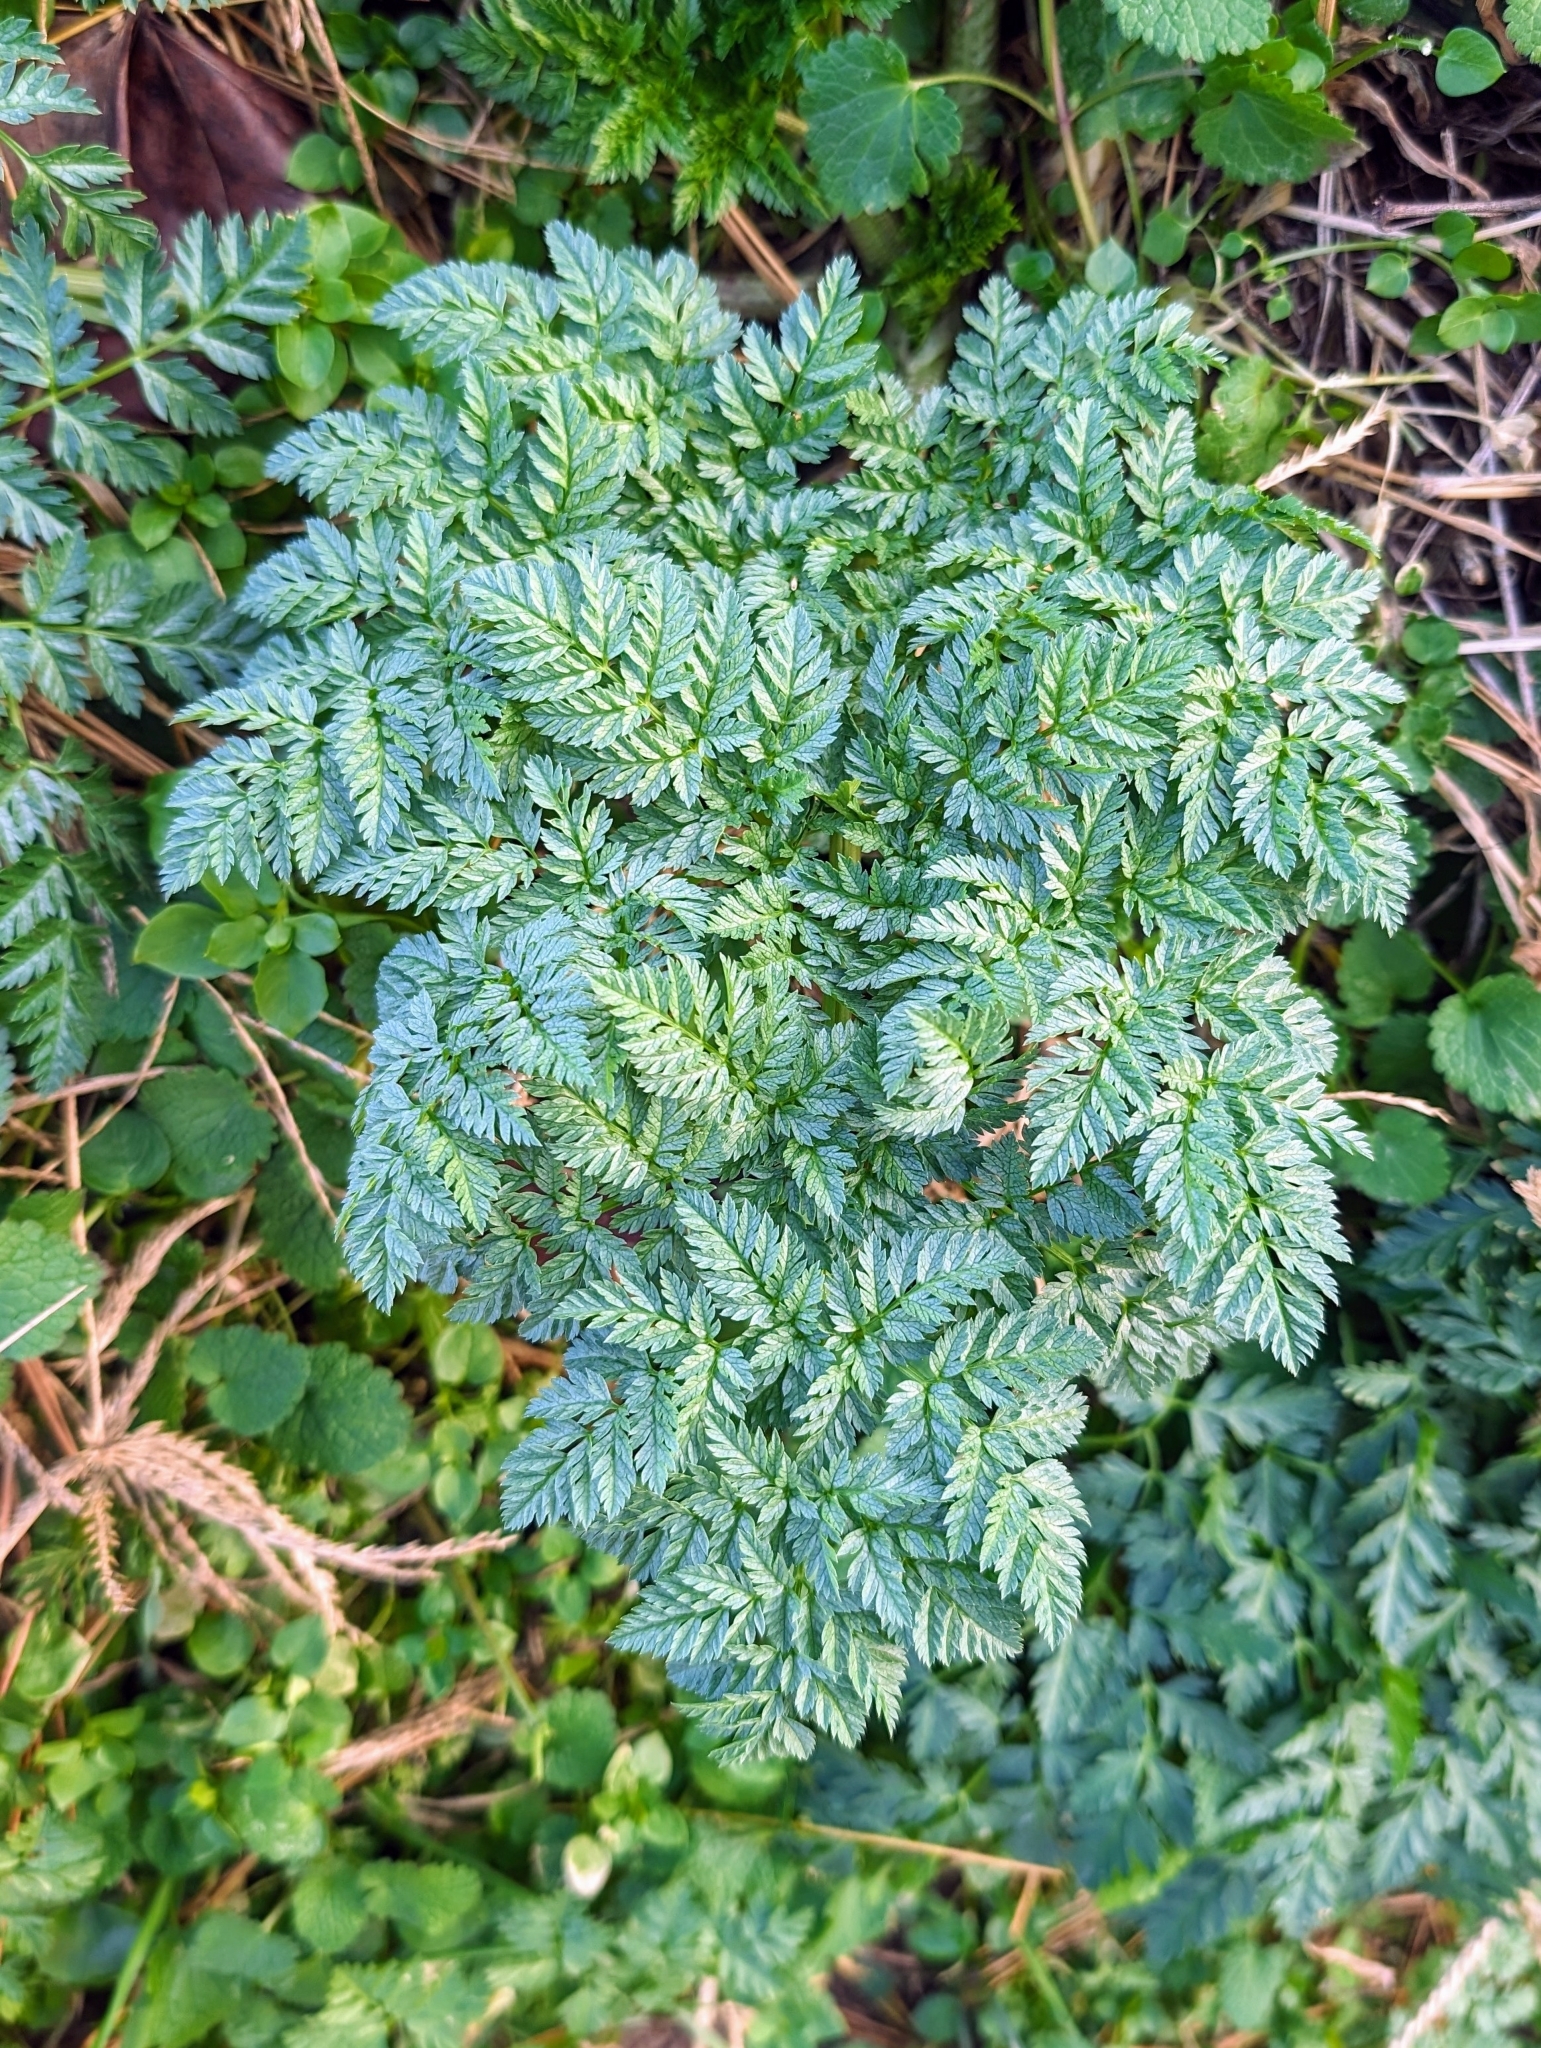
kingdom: Plantae
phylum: Tracheophyta
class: Magnoliopsida
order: Apiales
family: Apiaceae
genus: Conium
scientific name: Conium maculatum
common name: Hemlock
